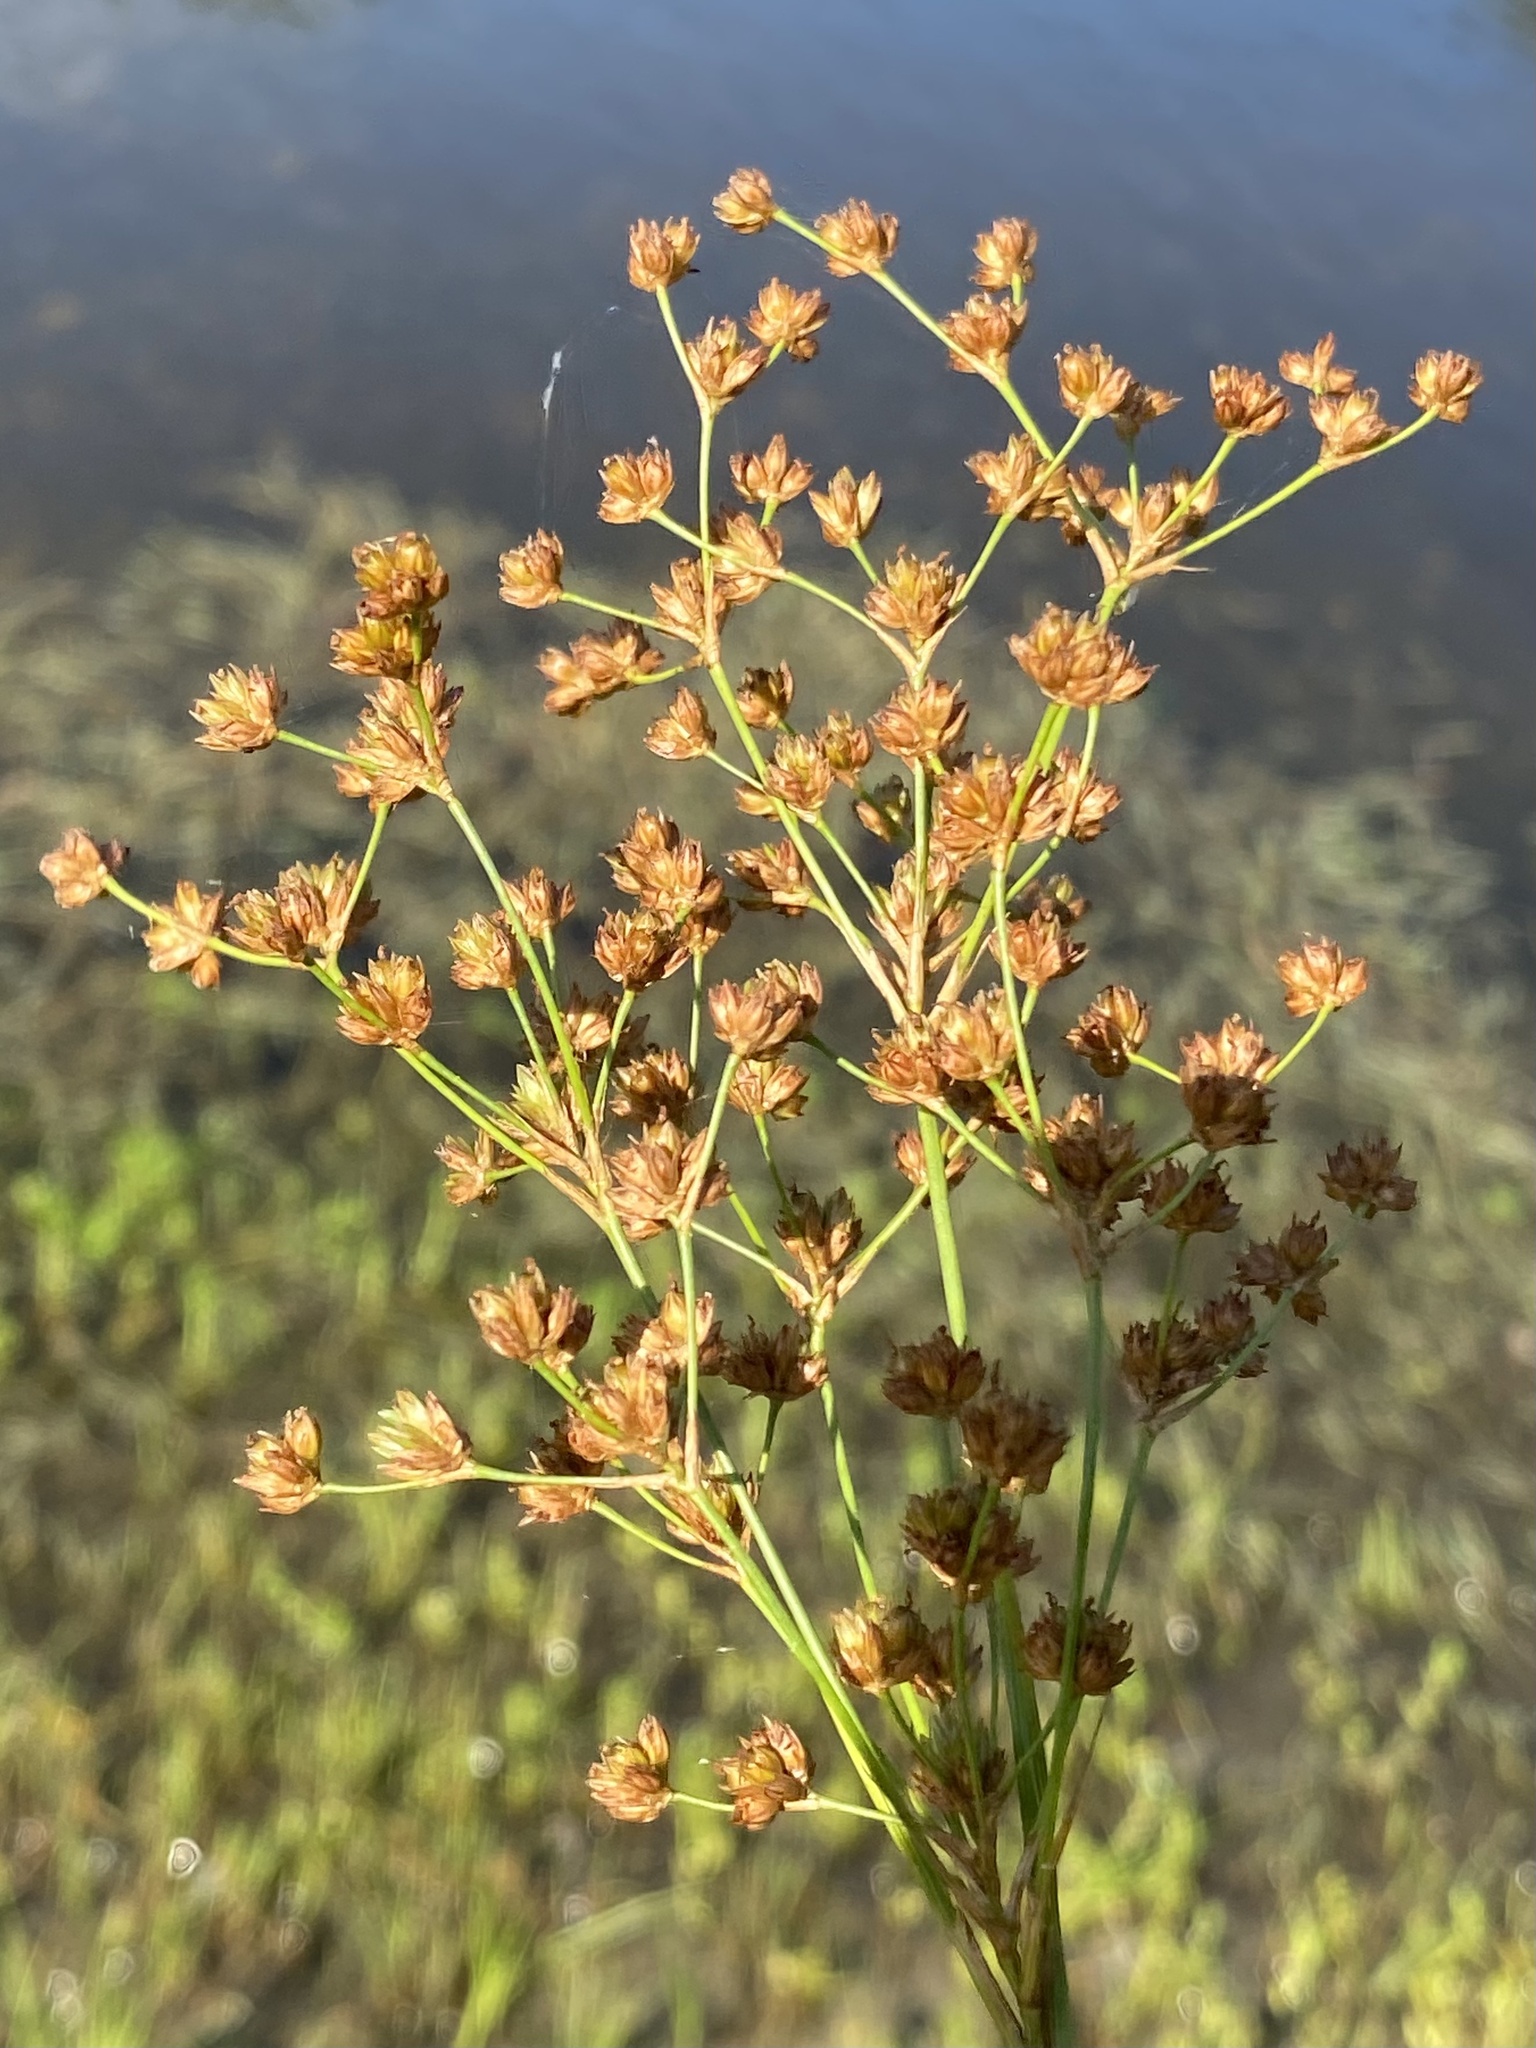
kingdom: Plantae
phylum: Tracheophyta
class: Liliopsida
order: Poales
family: Juncaceae
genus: Juncus
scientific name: Juncus biflorus
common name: Two-flowered rush
